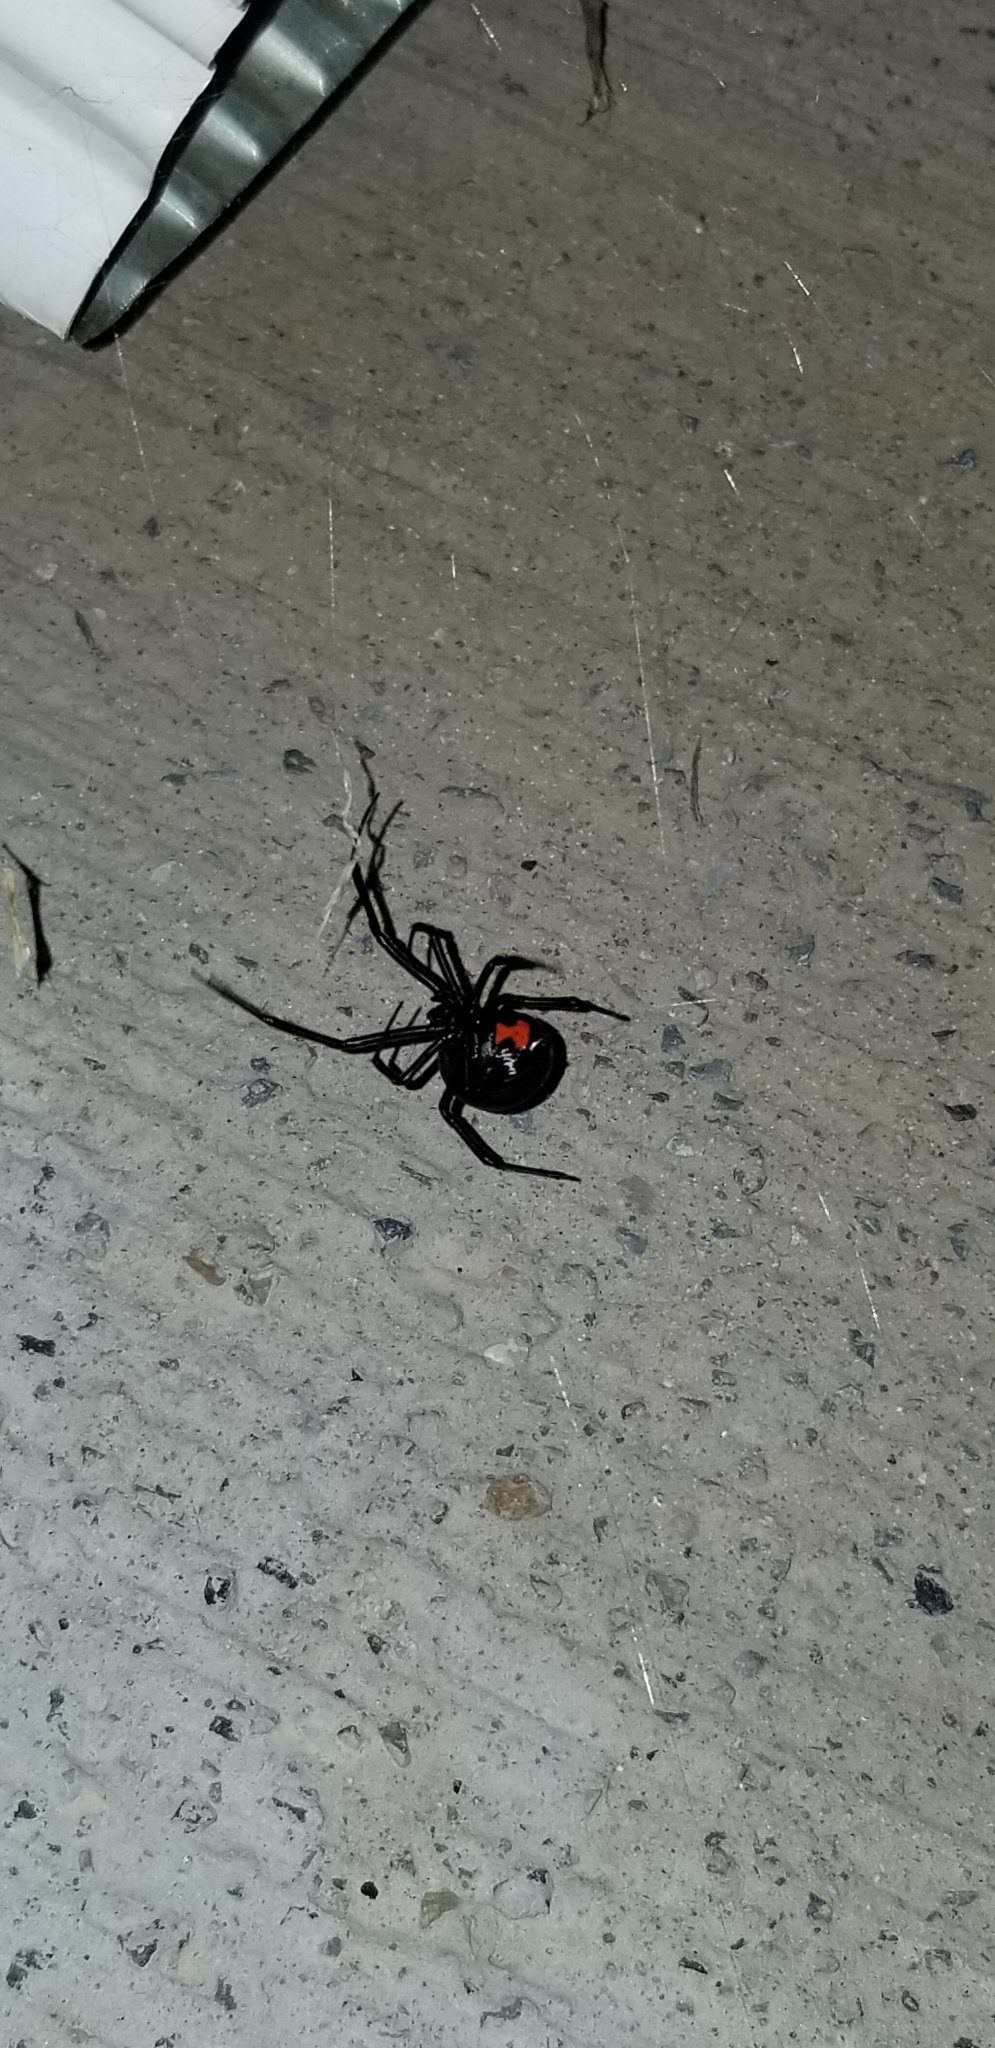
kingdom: Animalia
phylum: Arthropoda
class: Arachnida
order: Araneae
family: Theridiidae
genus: Latrodectus
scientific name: Latrodectus mactans
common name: Cobweb spiders
